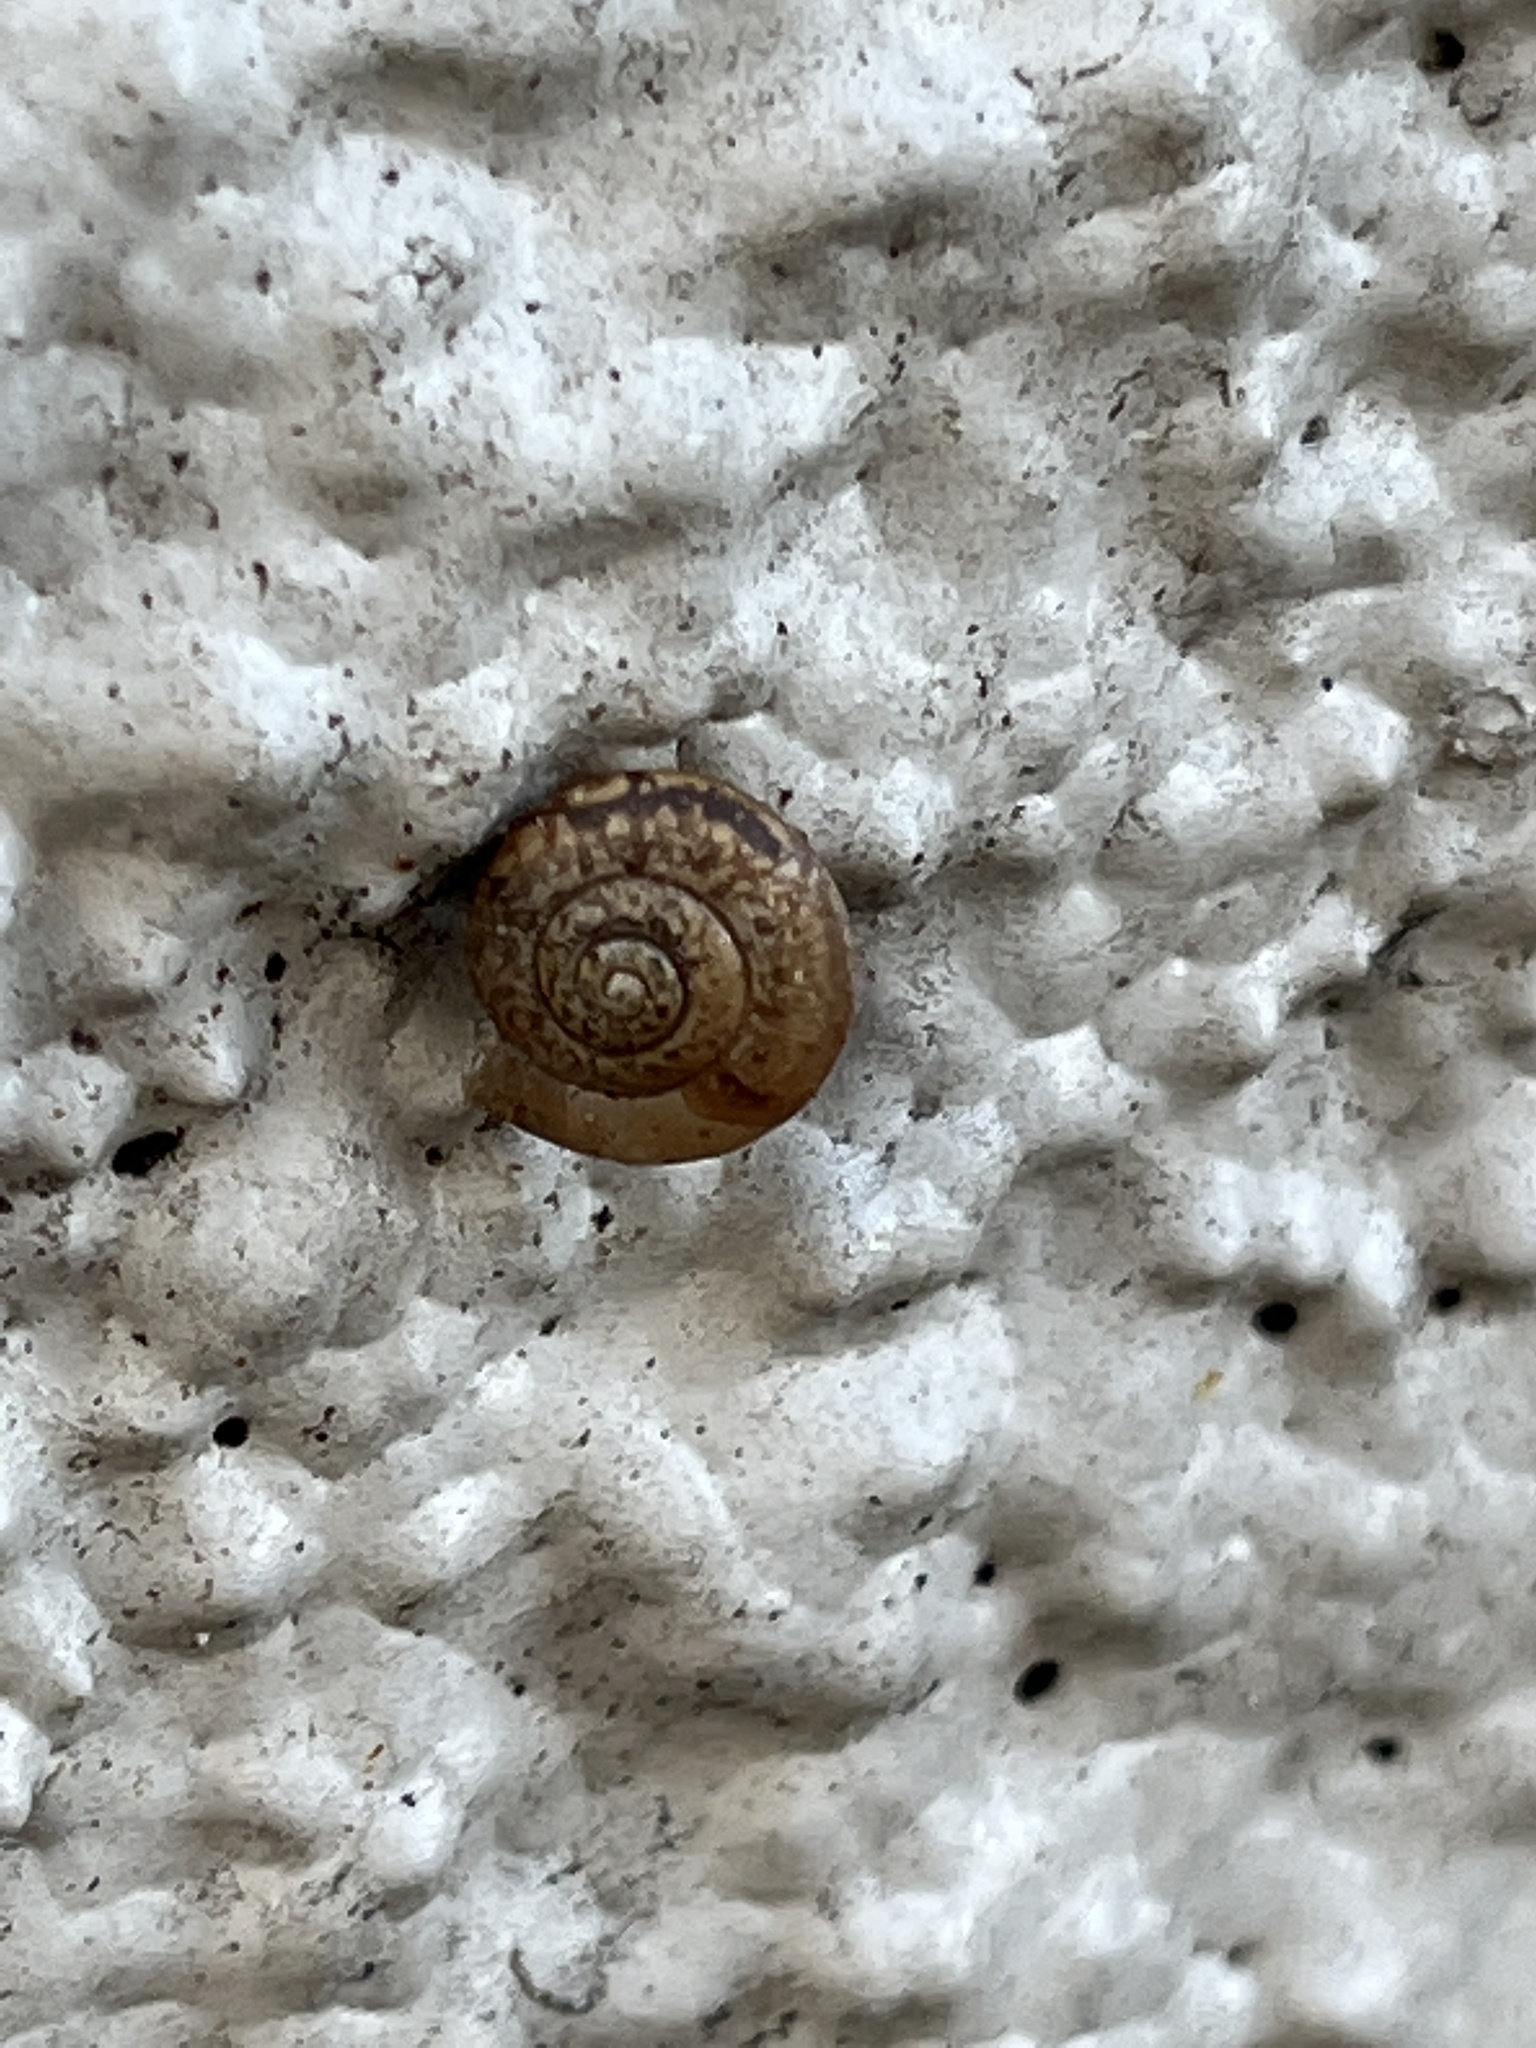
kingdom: Animalia
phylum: Mollusca
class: Gastropoda
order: Stylommatophora
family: Camaenidae
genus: Bradybaena
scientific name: Bradybaena similaris
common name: Asian trampsnail
